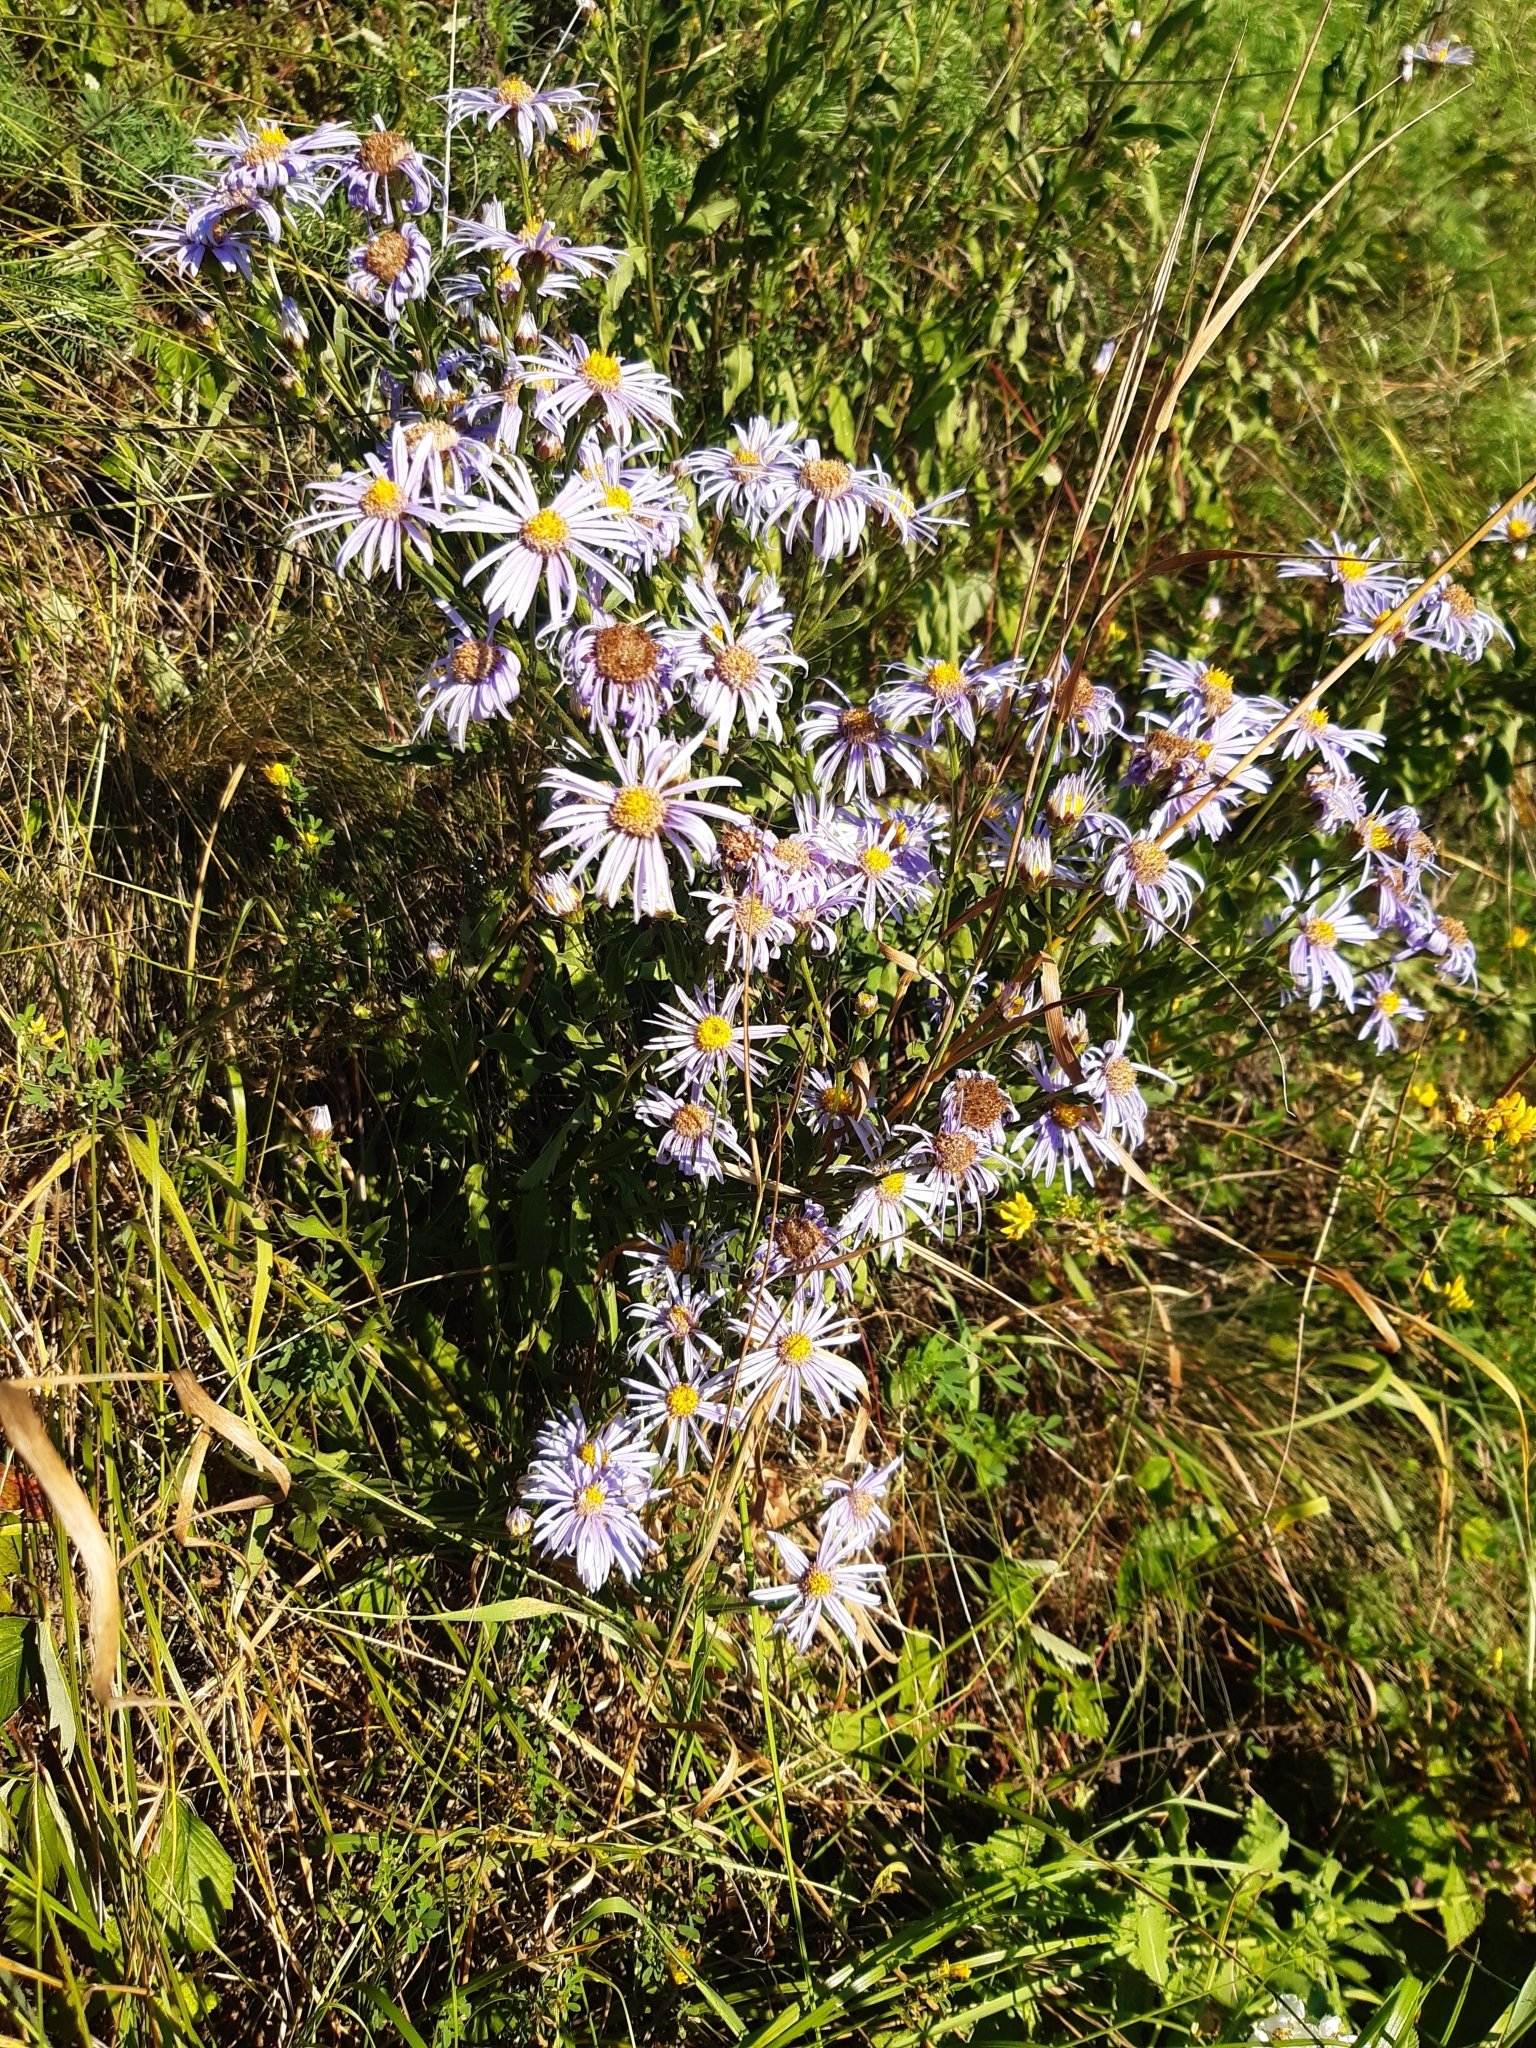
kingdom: Plantae
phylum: Tracheophyta
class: Magnoliopsida
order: Asterales
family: Asteraceae
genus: Aster
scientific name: Aster amellus
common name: European michaelmas daisy
